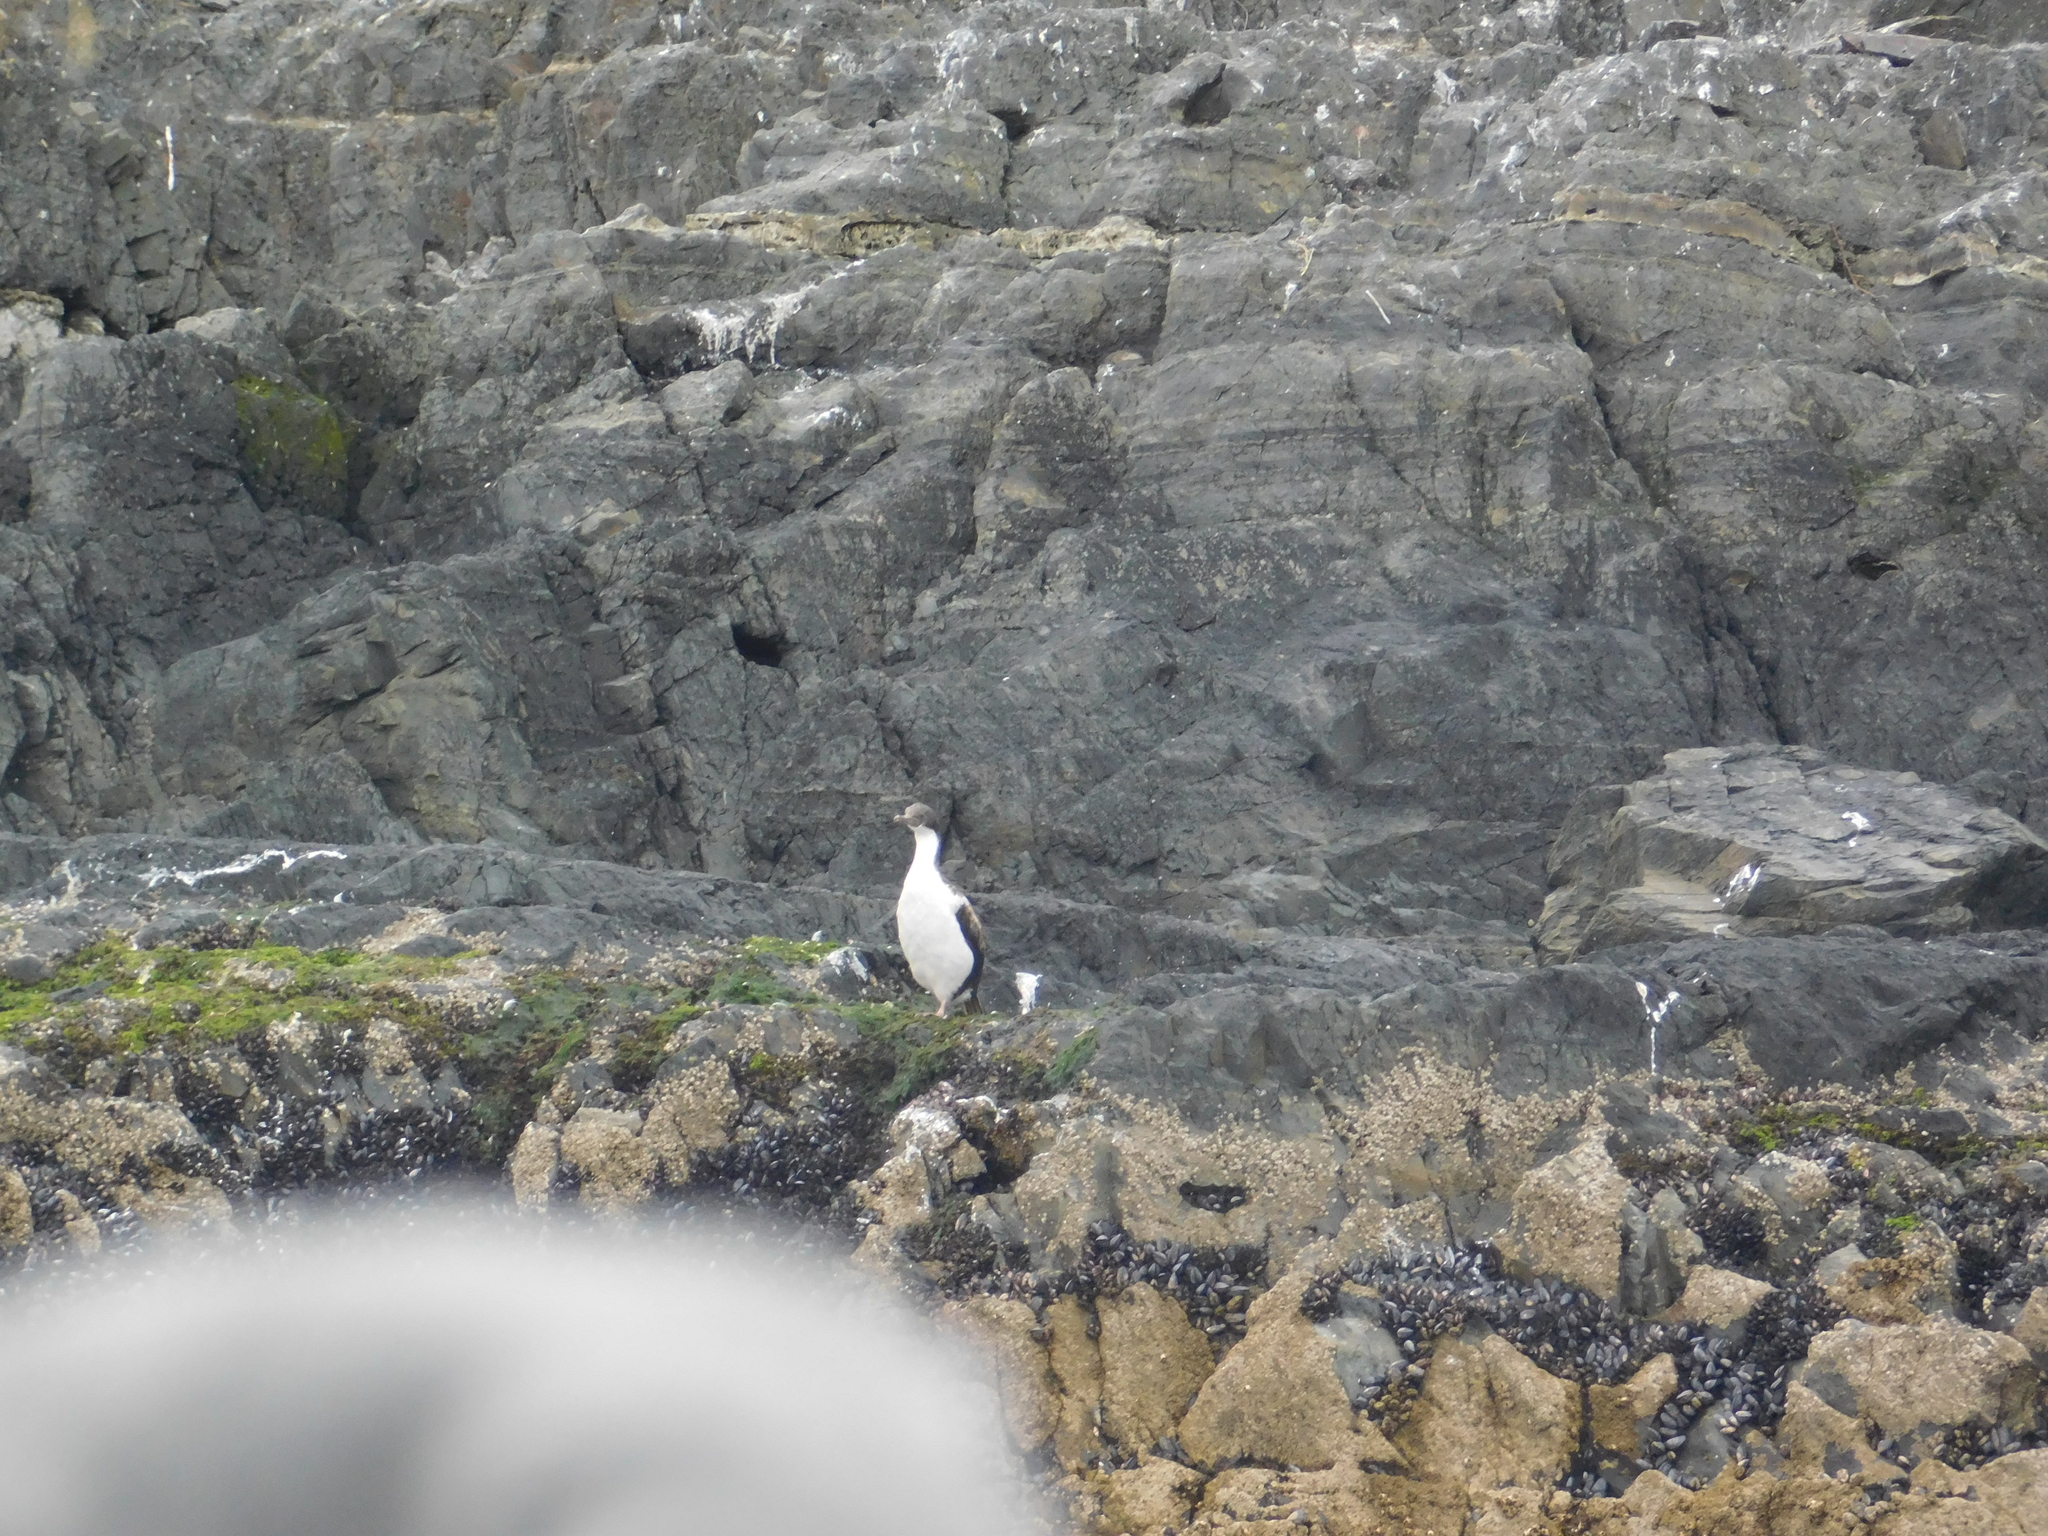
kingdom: Animalia
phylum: Chordata
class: Aves
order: Suliformes
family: Phalacrocoracidae
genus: Leucocarbo
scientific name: Leucocarbo atriceps
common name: Imperial shag
